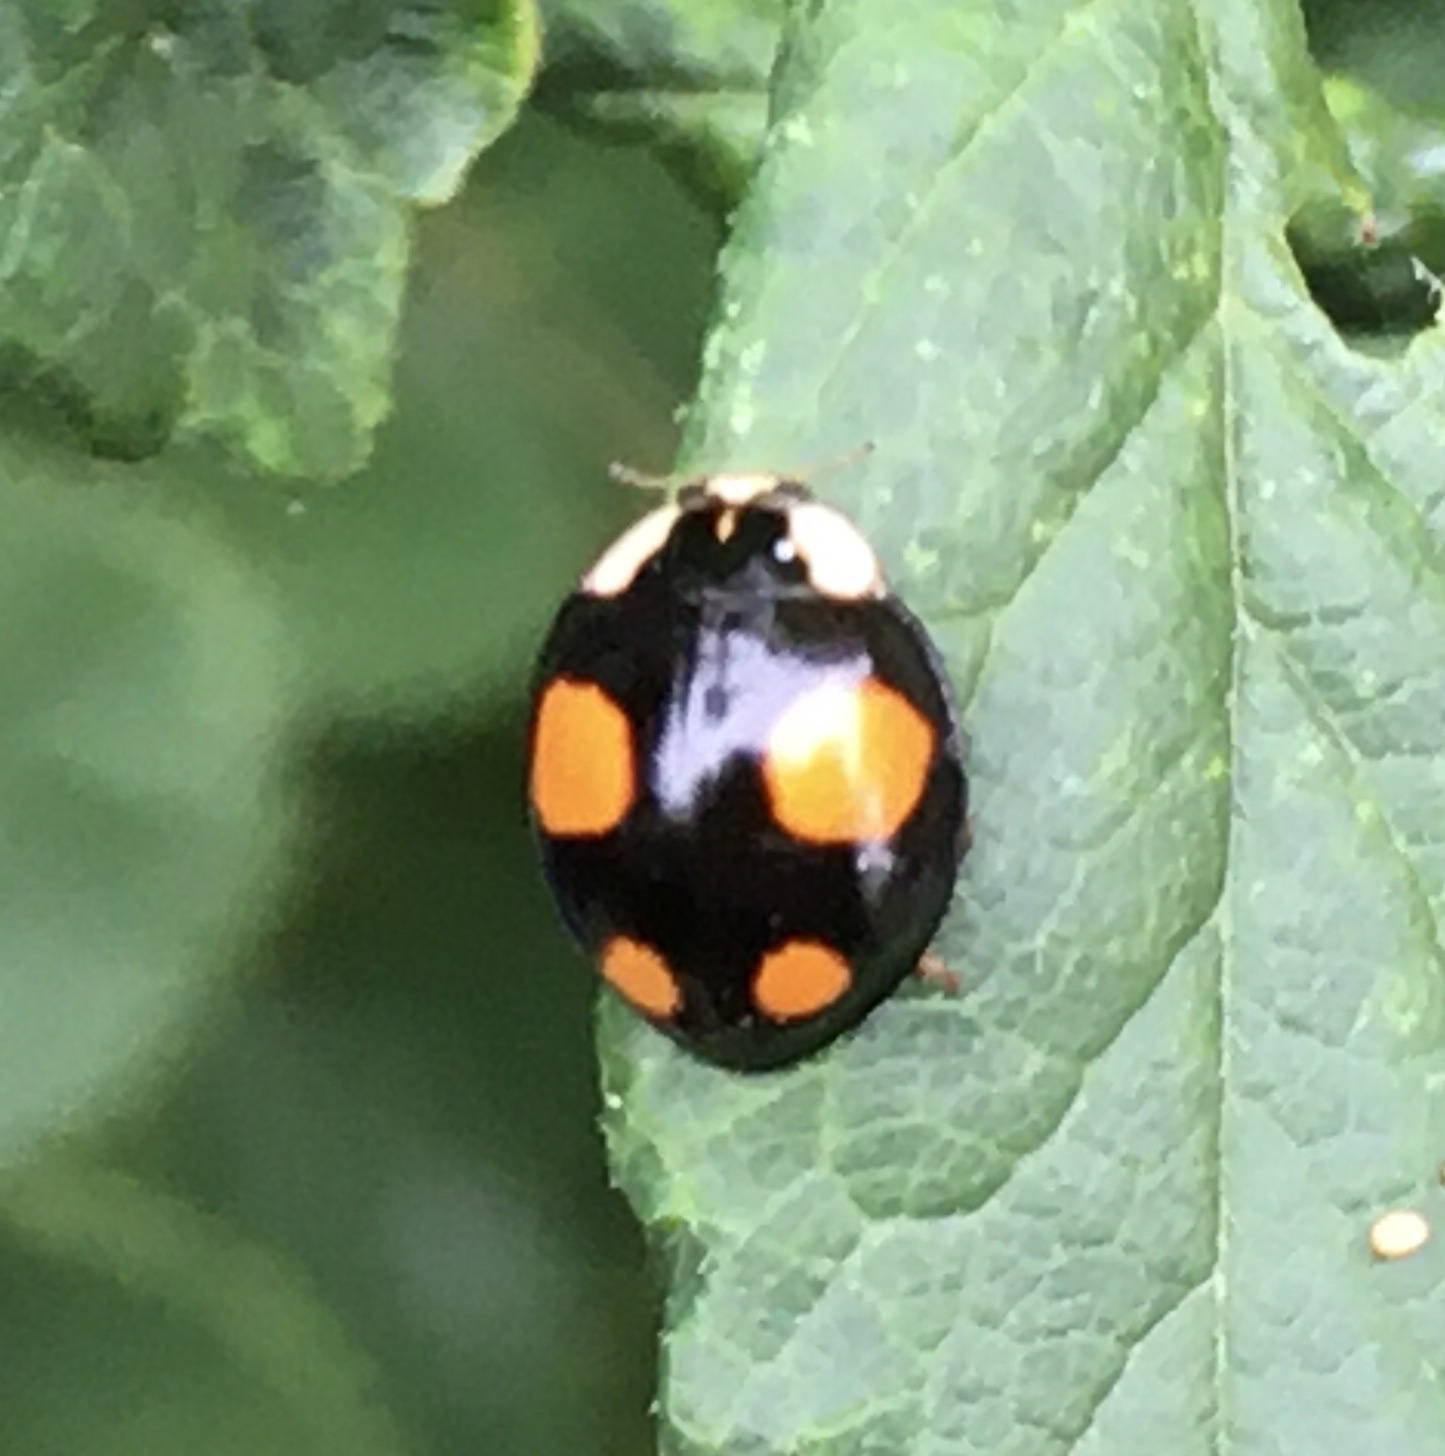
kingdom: Animalia
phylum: Arthropoda
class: Insecta
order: Coleoptera
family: Coccinellidae
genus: Harmonia
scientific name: Harmonia axyridis
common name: Harlequin ladybird
